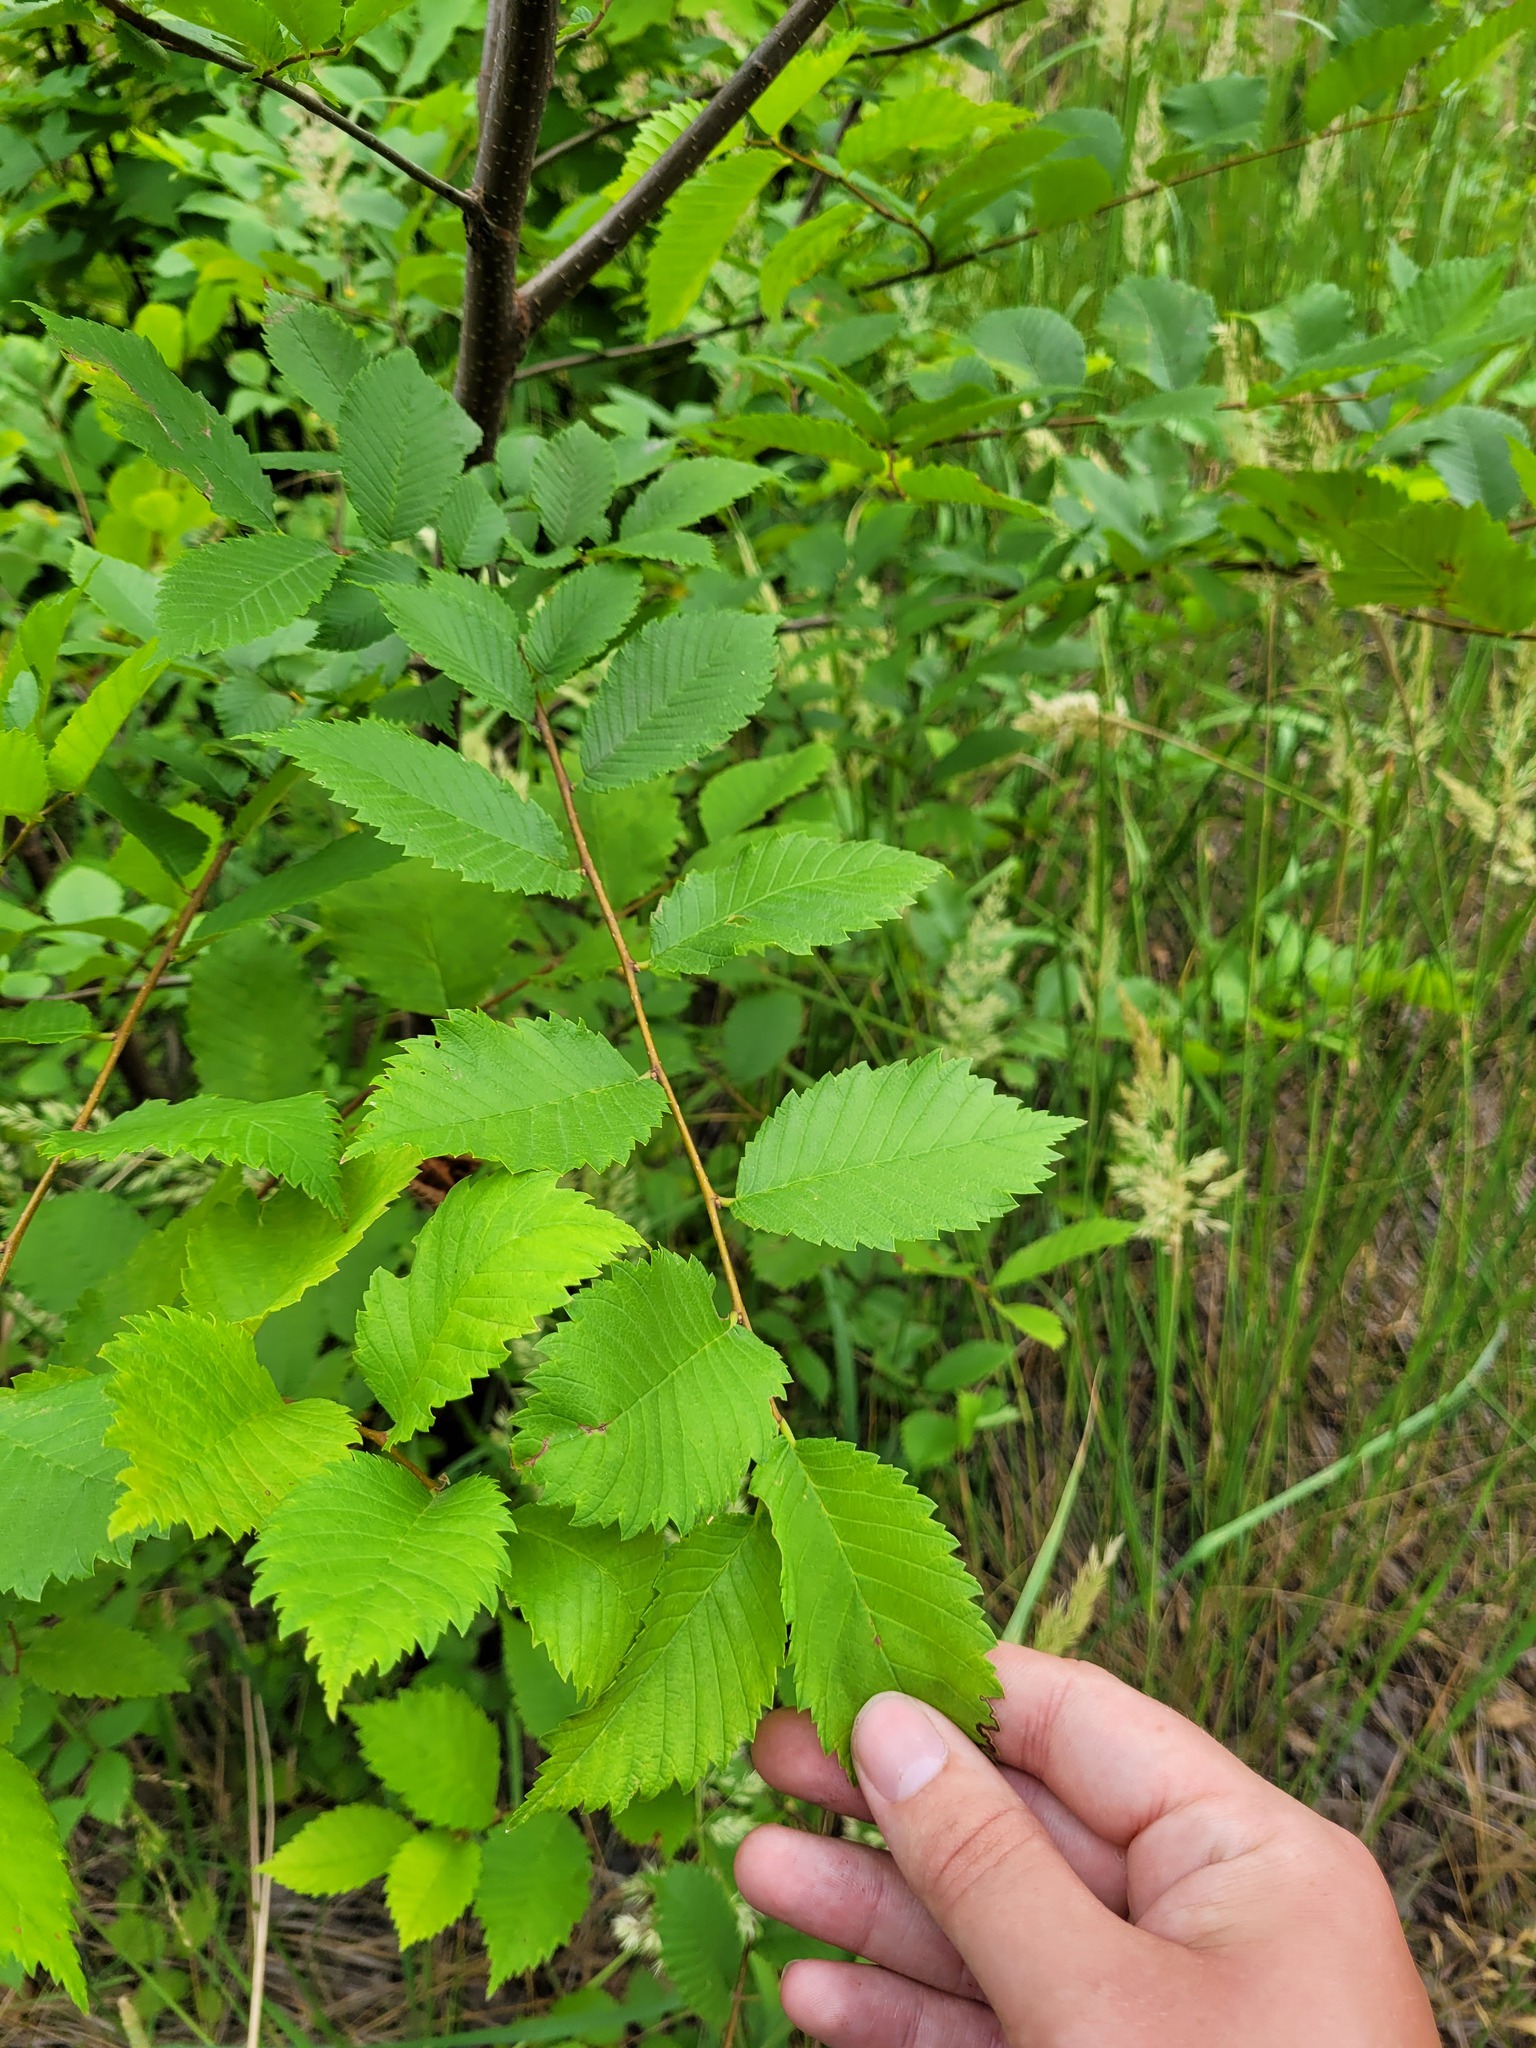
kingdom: Plantae
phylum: Tracheophyta
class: Magnoliopsida
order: Rosales
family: Ulmaceae
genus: Ulmus
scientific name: Ulmus laevis
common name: European white-elm
